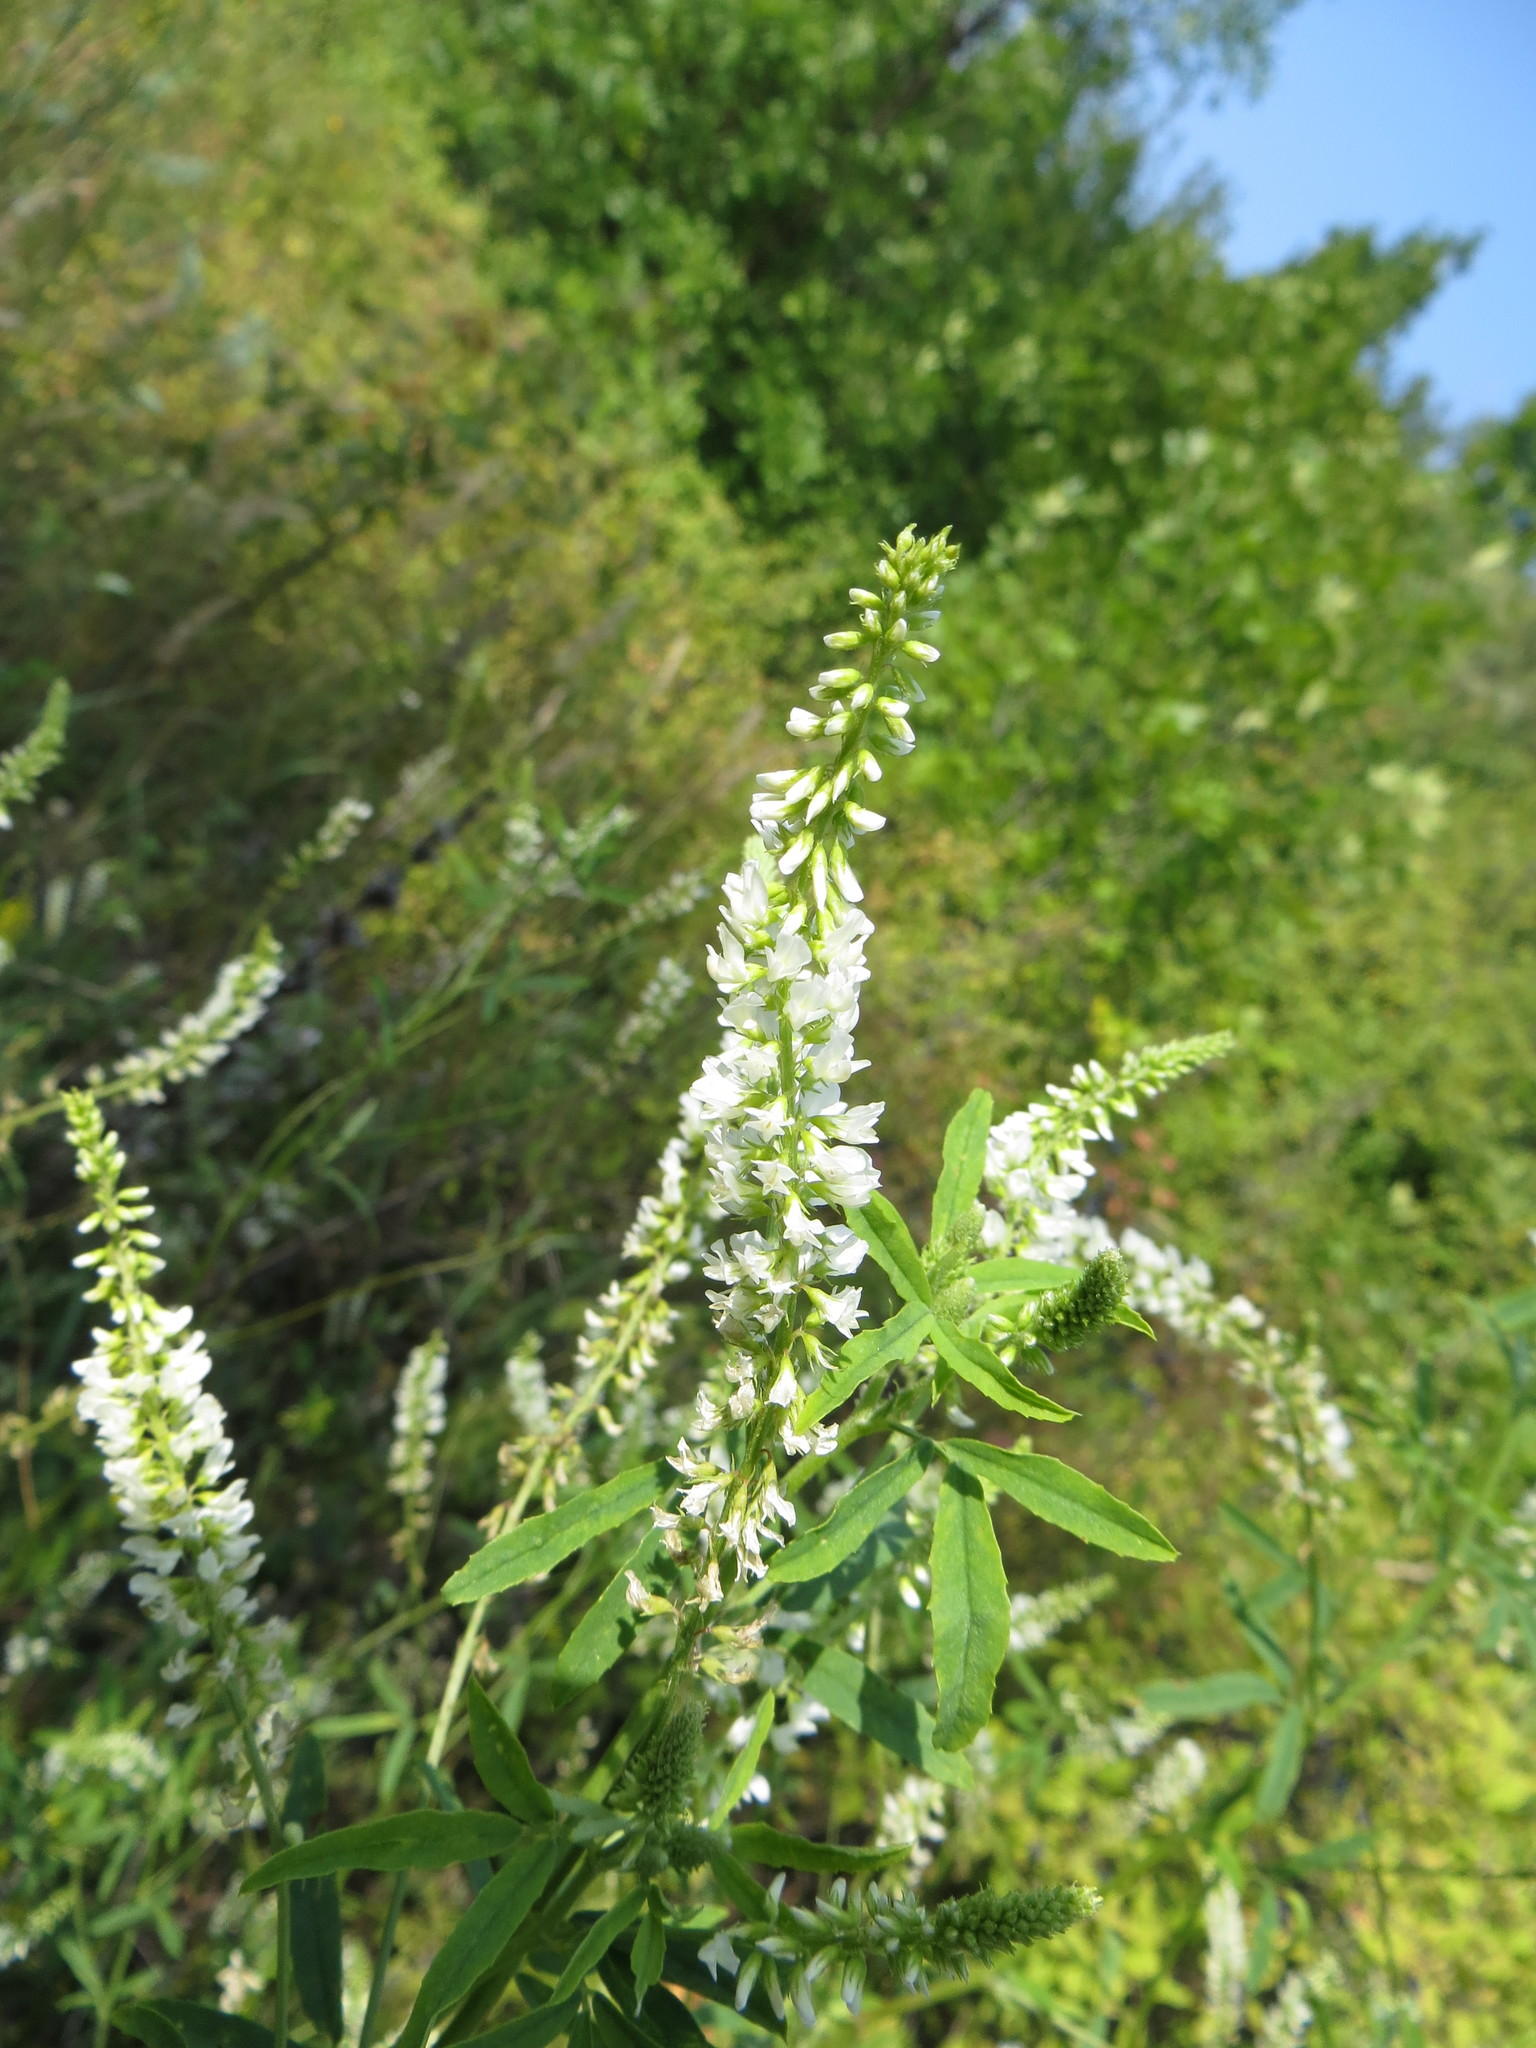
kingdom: Plantae
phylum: Tracheophyta
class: Magnoliopsida
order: Fabales
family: Fabaceae
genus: Melilotus
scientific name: Melilotus albus
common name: White melilot
